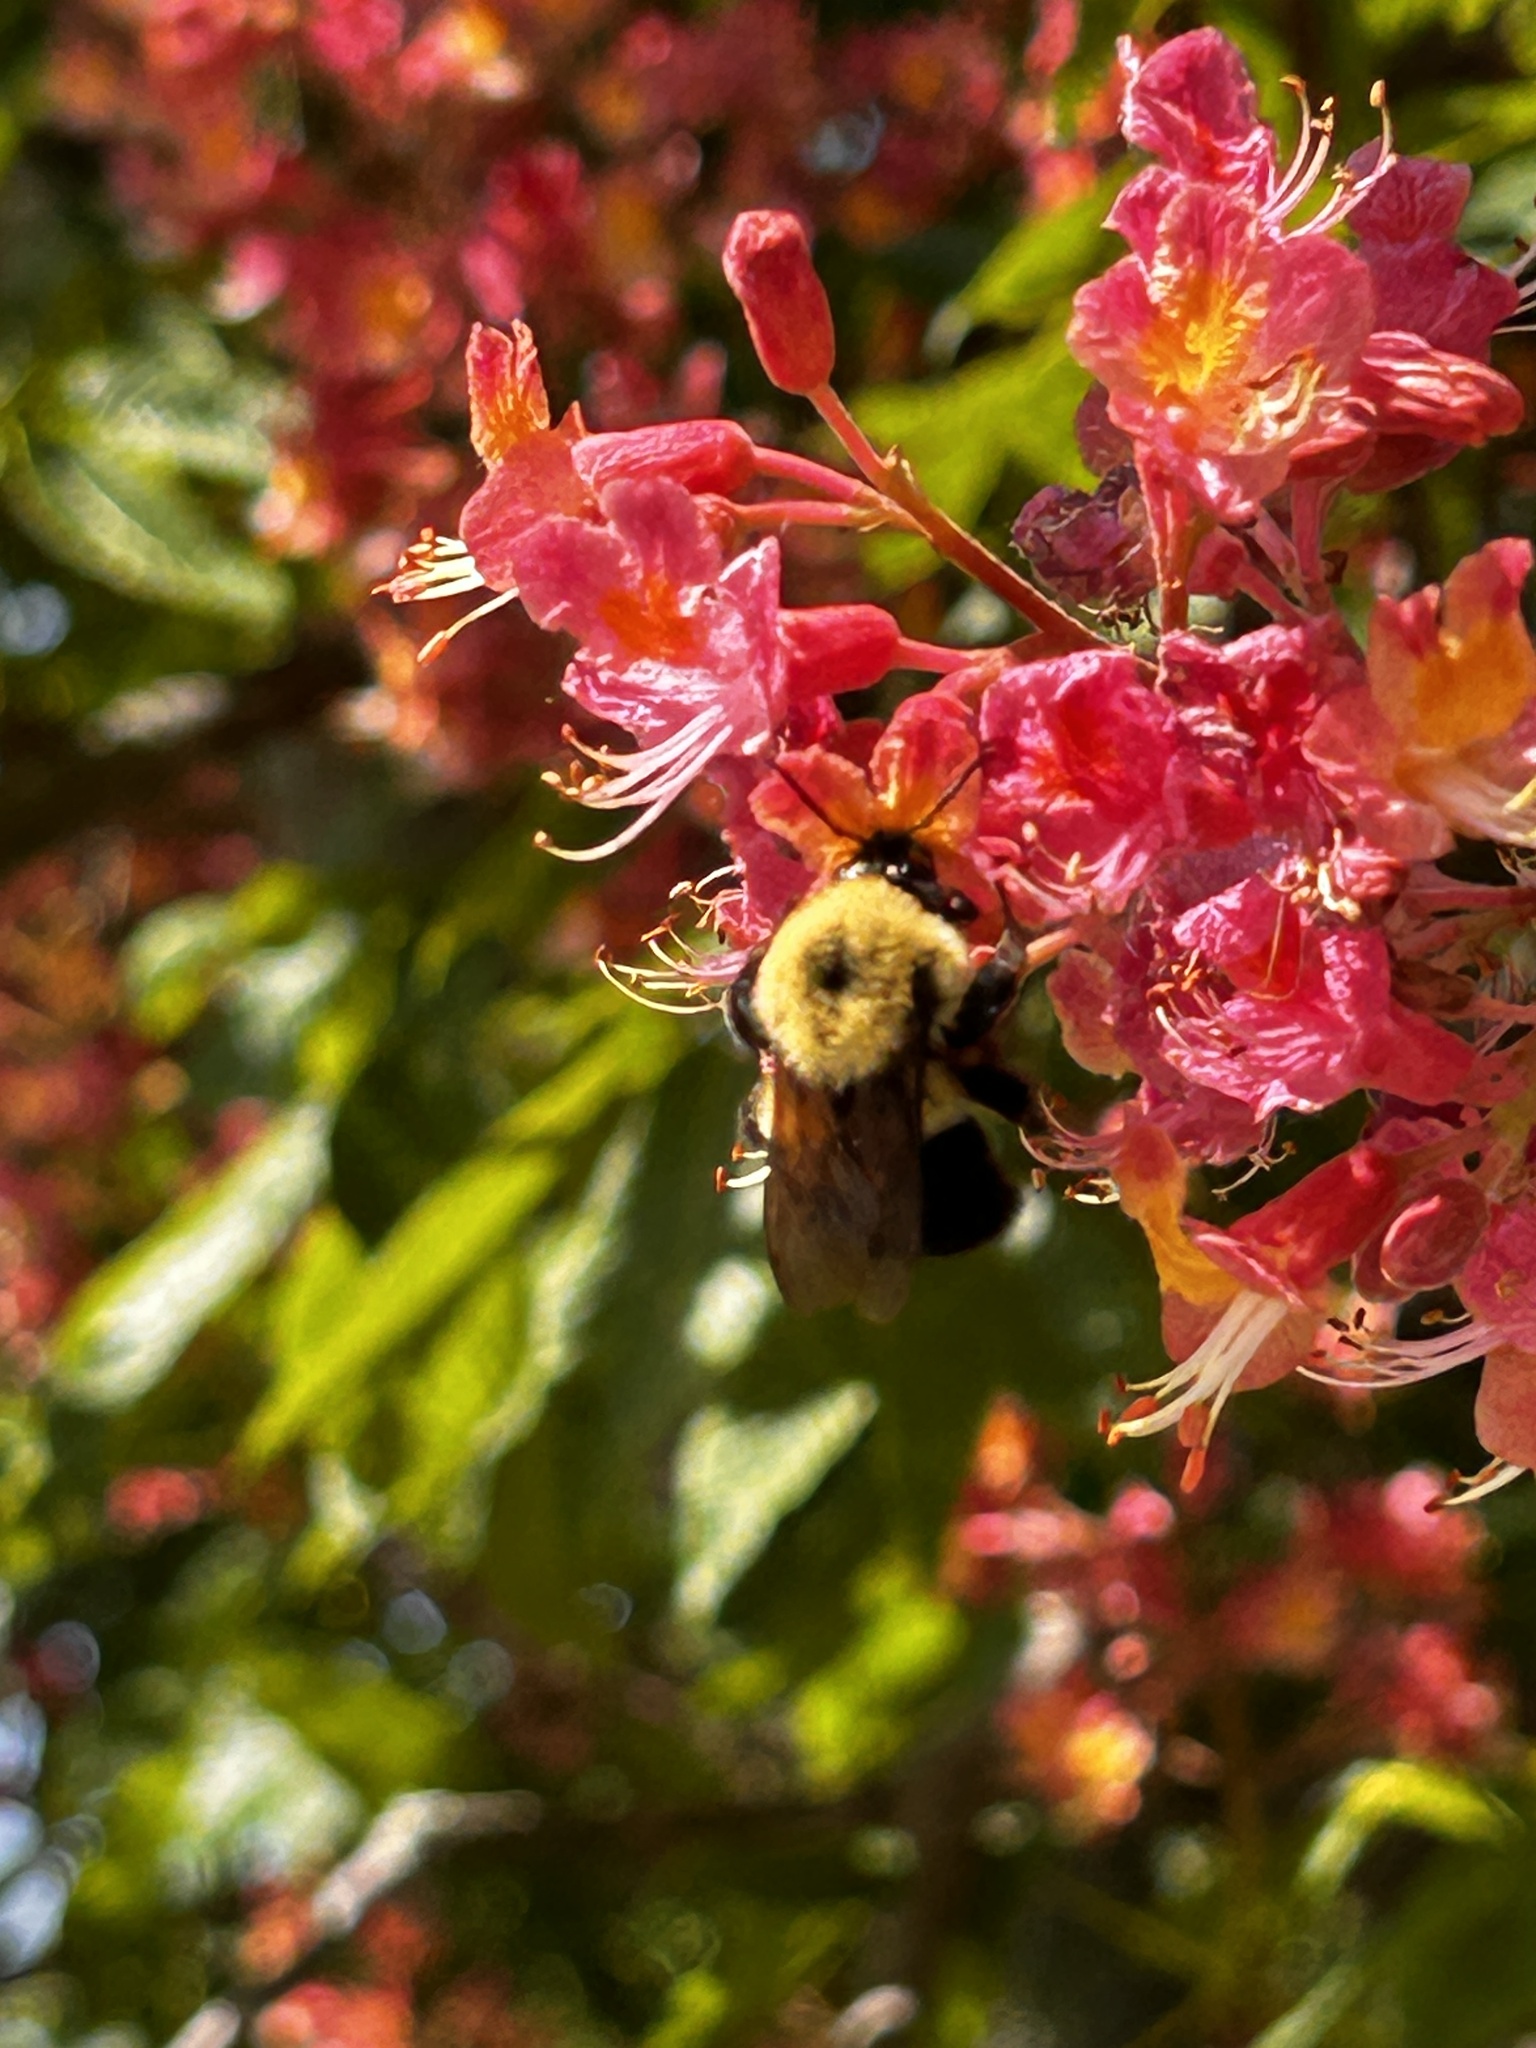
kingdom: Animalia
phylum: Arthropoda
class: Insecta
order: Hymenoptera
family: Apidae
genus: Bombus
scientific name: Bombus bimaculatus
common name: Two-spotted bumble bee
